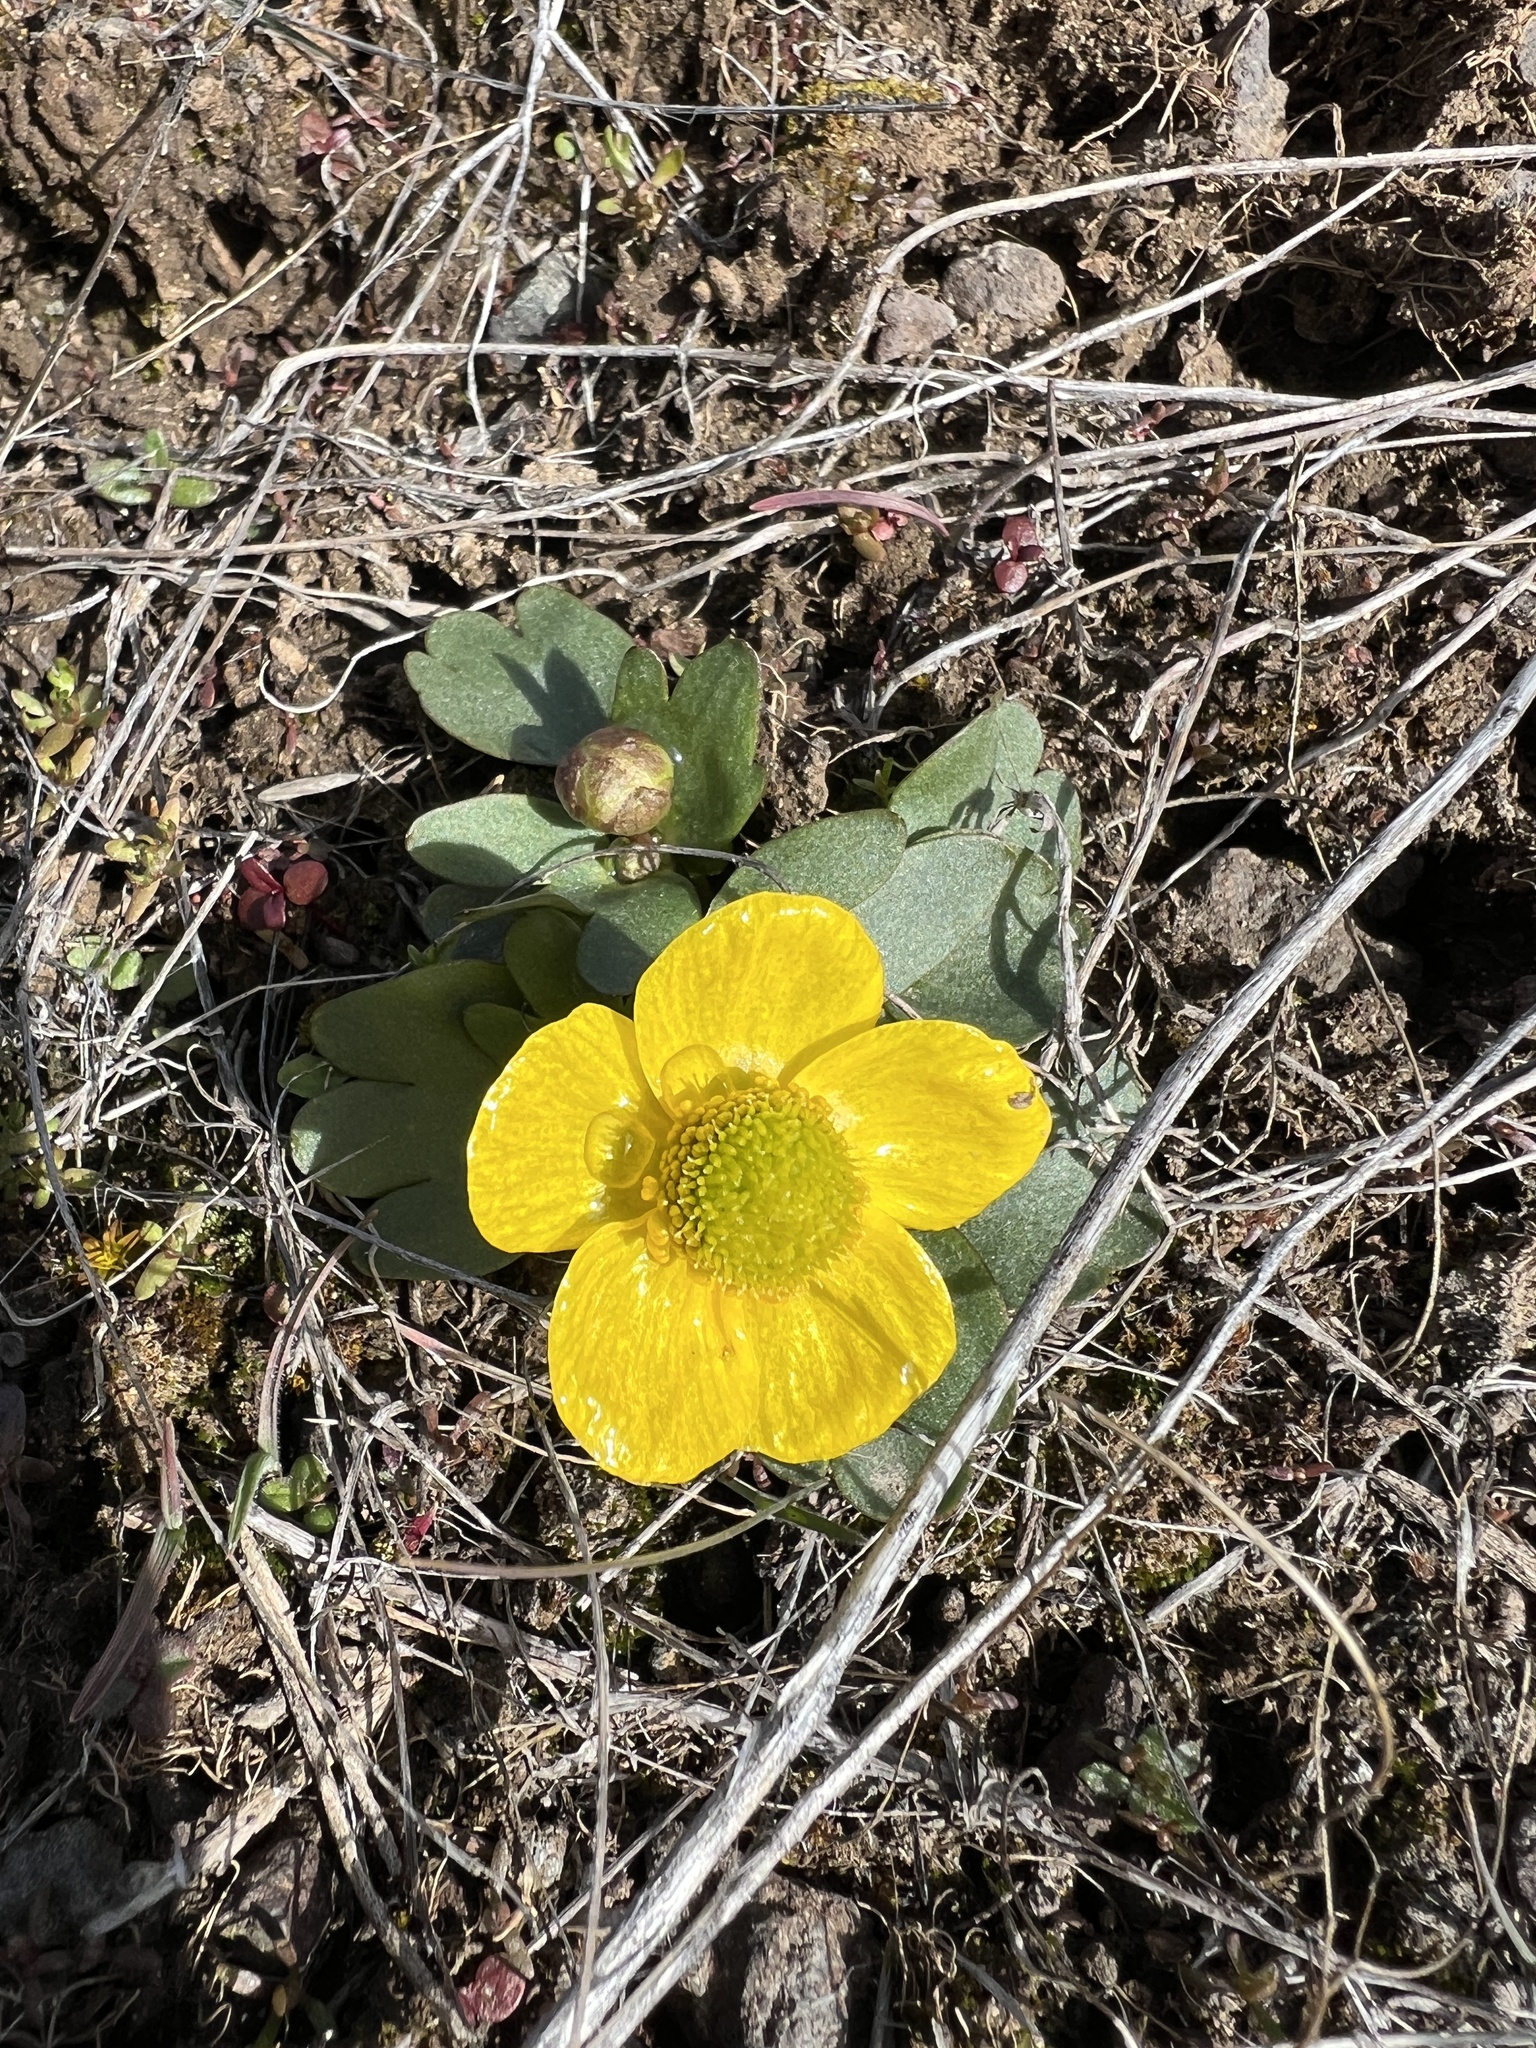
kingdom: Plantae
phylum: Tracheophyta
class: Magnoliopsida
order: Ranunculales
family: Ranunculaceae
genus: Ranunculus
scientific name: Ranunculus glaberrimus
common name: Sagebrush buttercup
